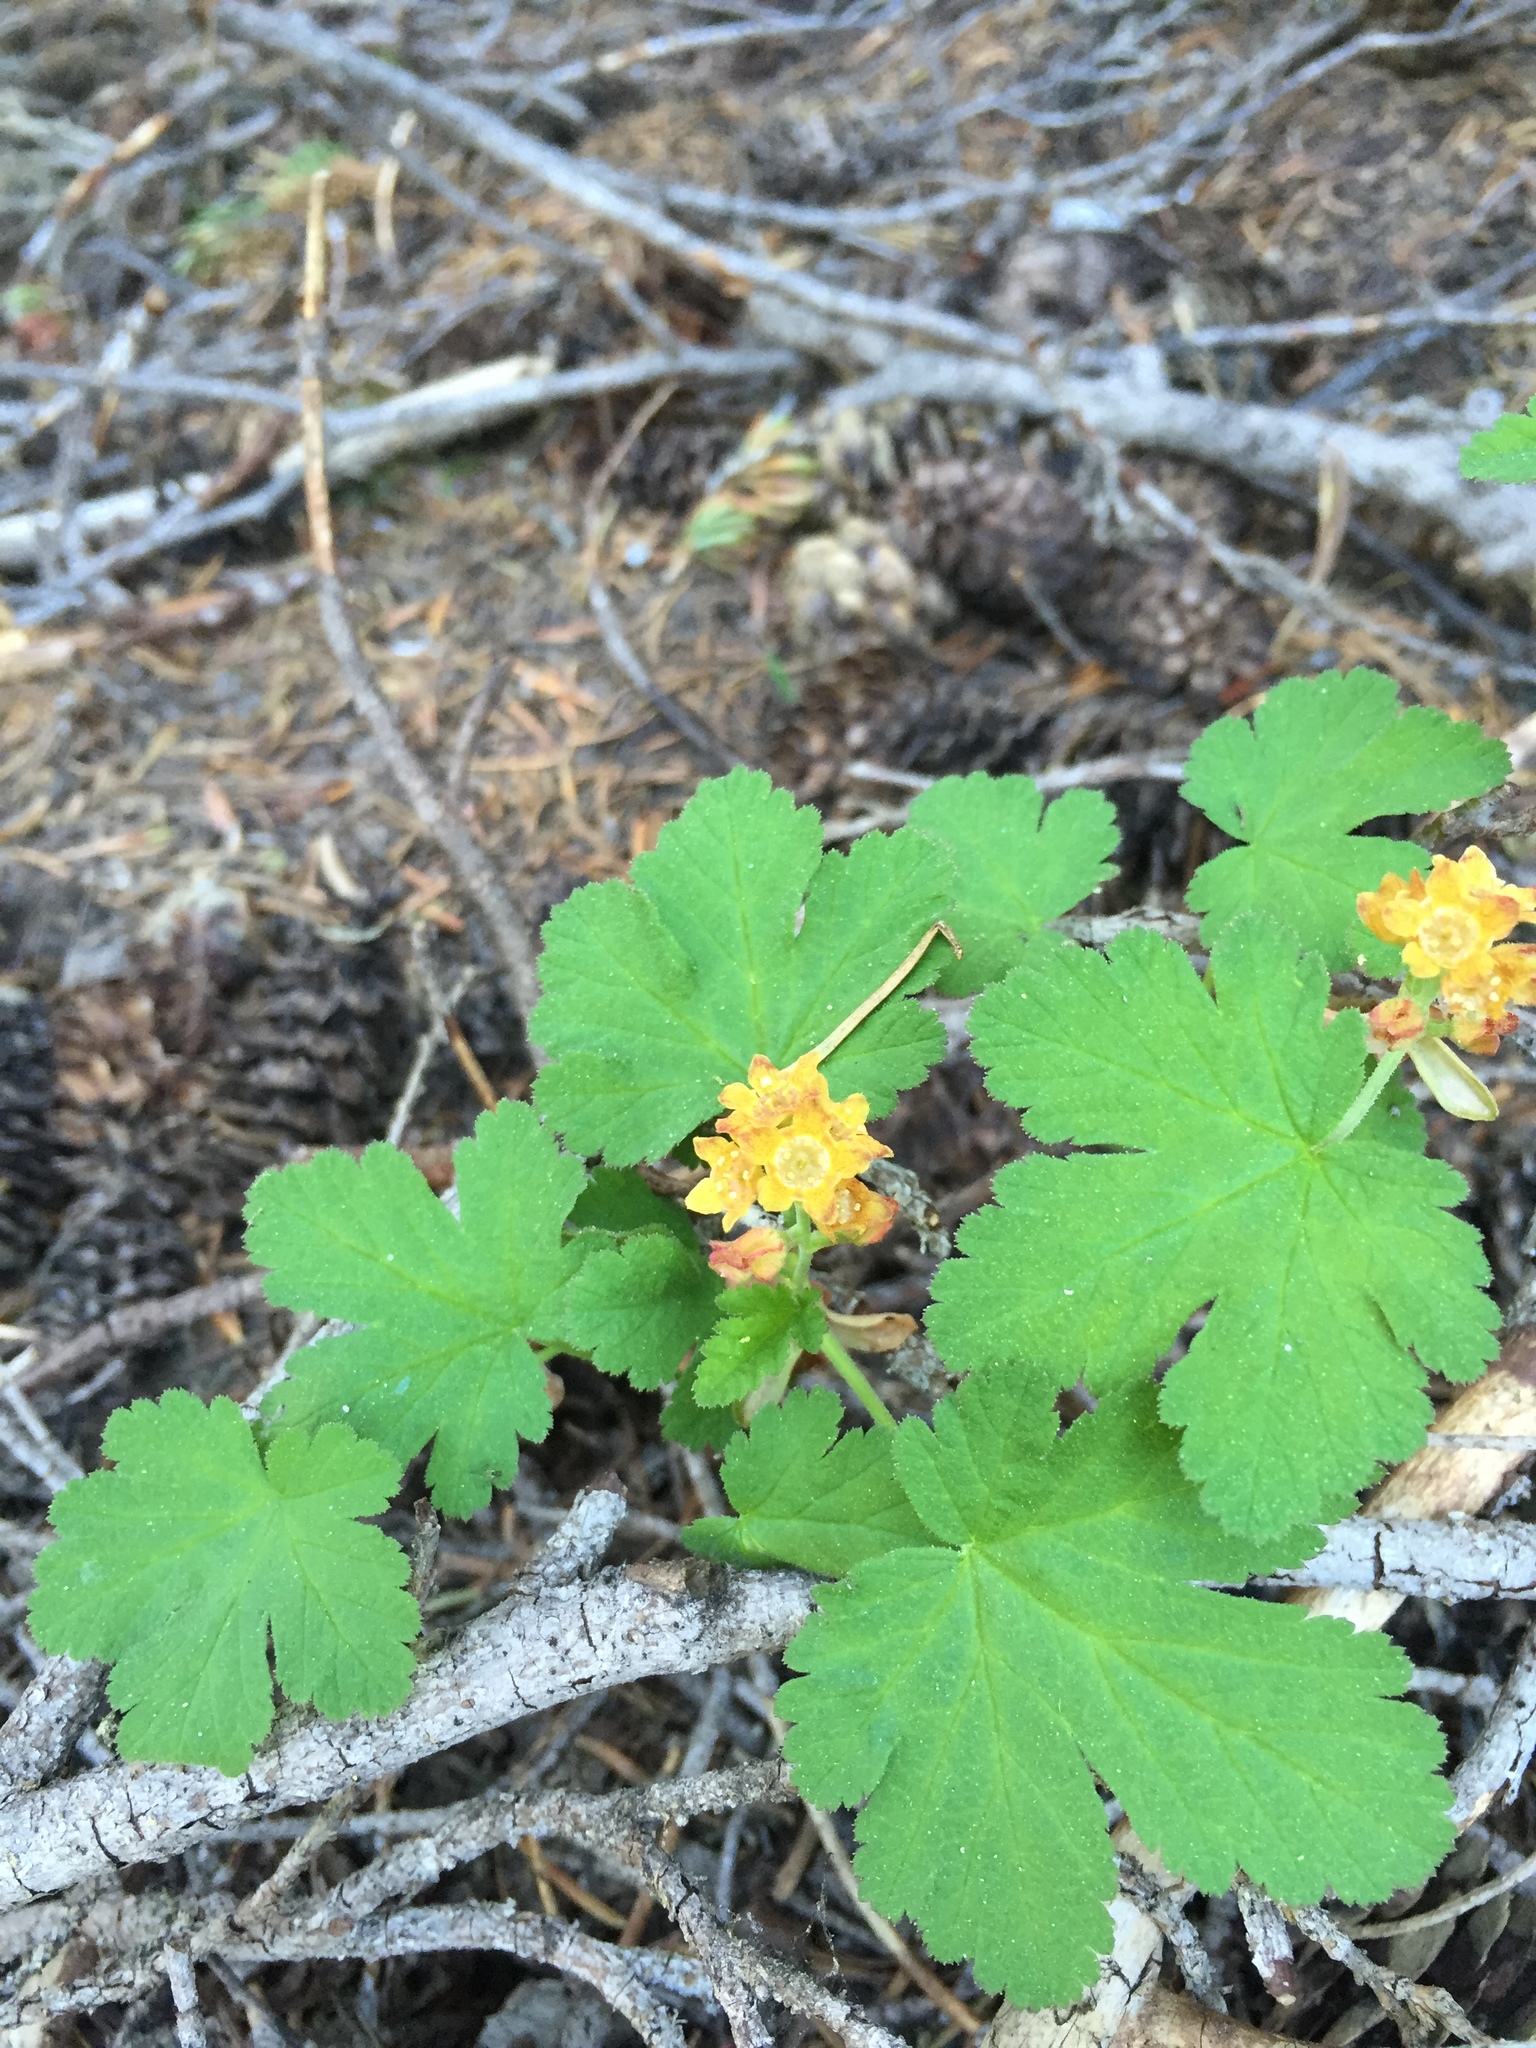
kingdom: Plantae
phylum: Tracheophyta
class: Magnoliopsida
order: Saxifragales
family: Grossulariaceae
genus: Ribes
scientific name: Ribes erythrocarpum
